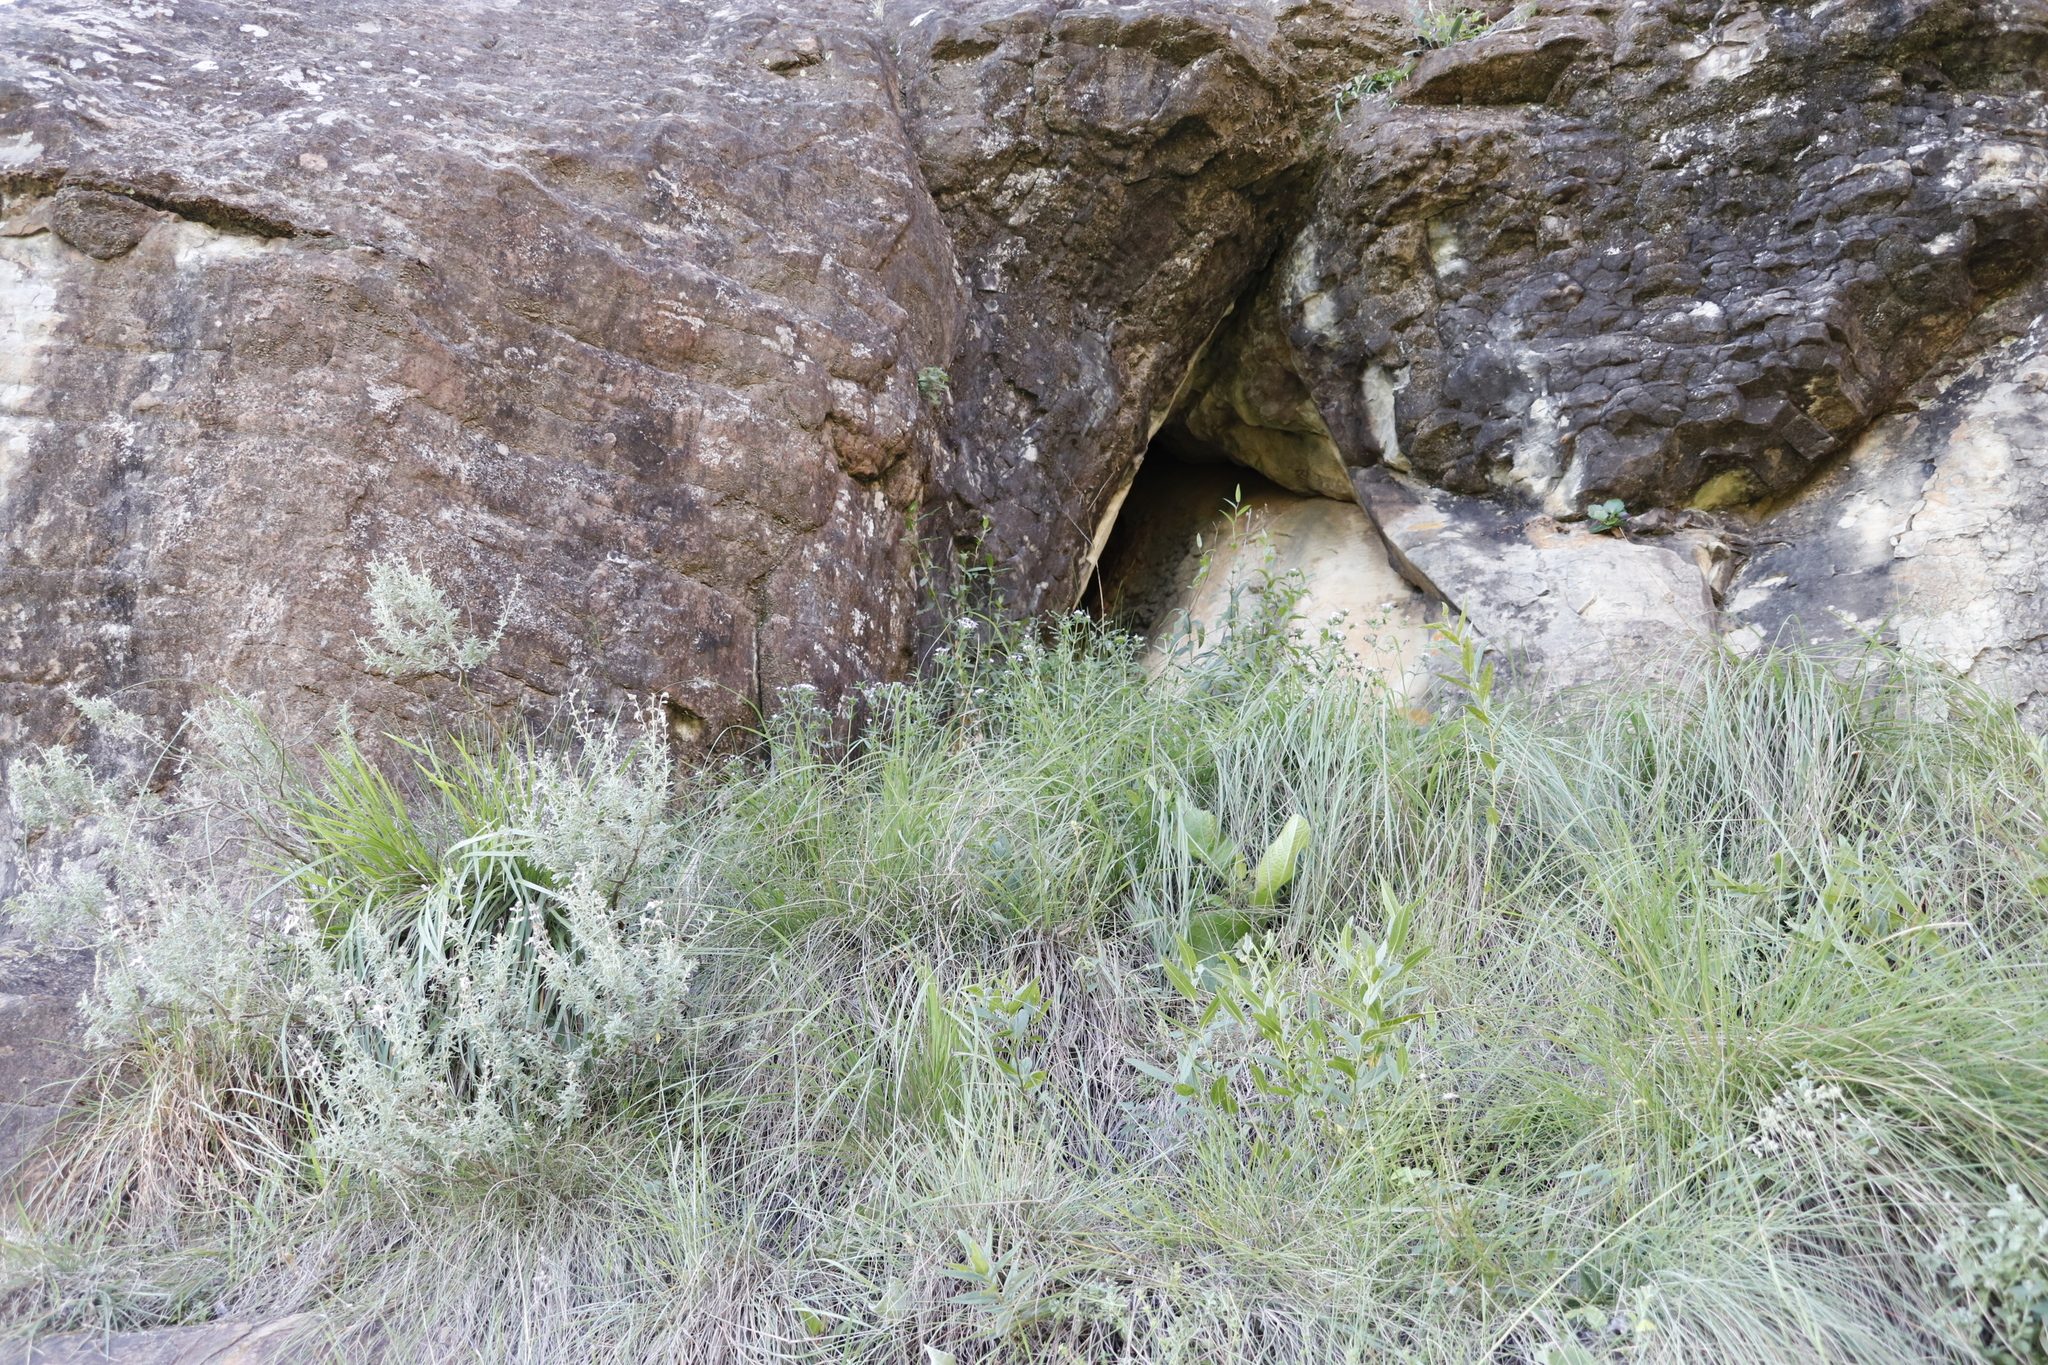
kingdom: Plantae
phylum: Tracheophyta
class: Magnoliopsida
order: Gentianales
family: Rubiaceae
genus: Conostomium
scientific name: Conostomium natalense
